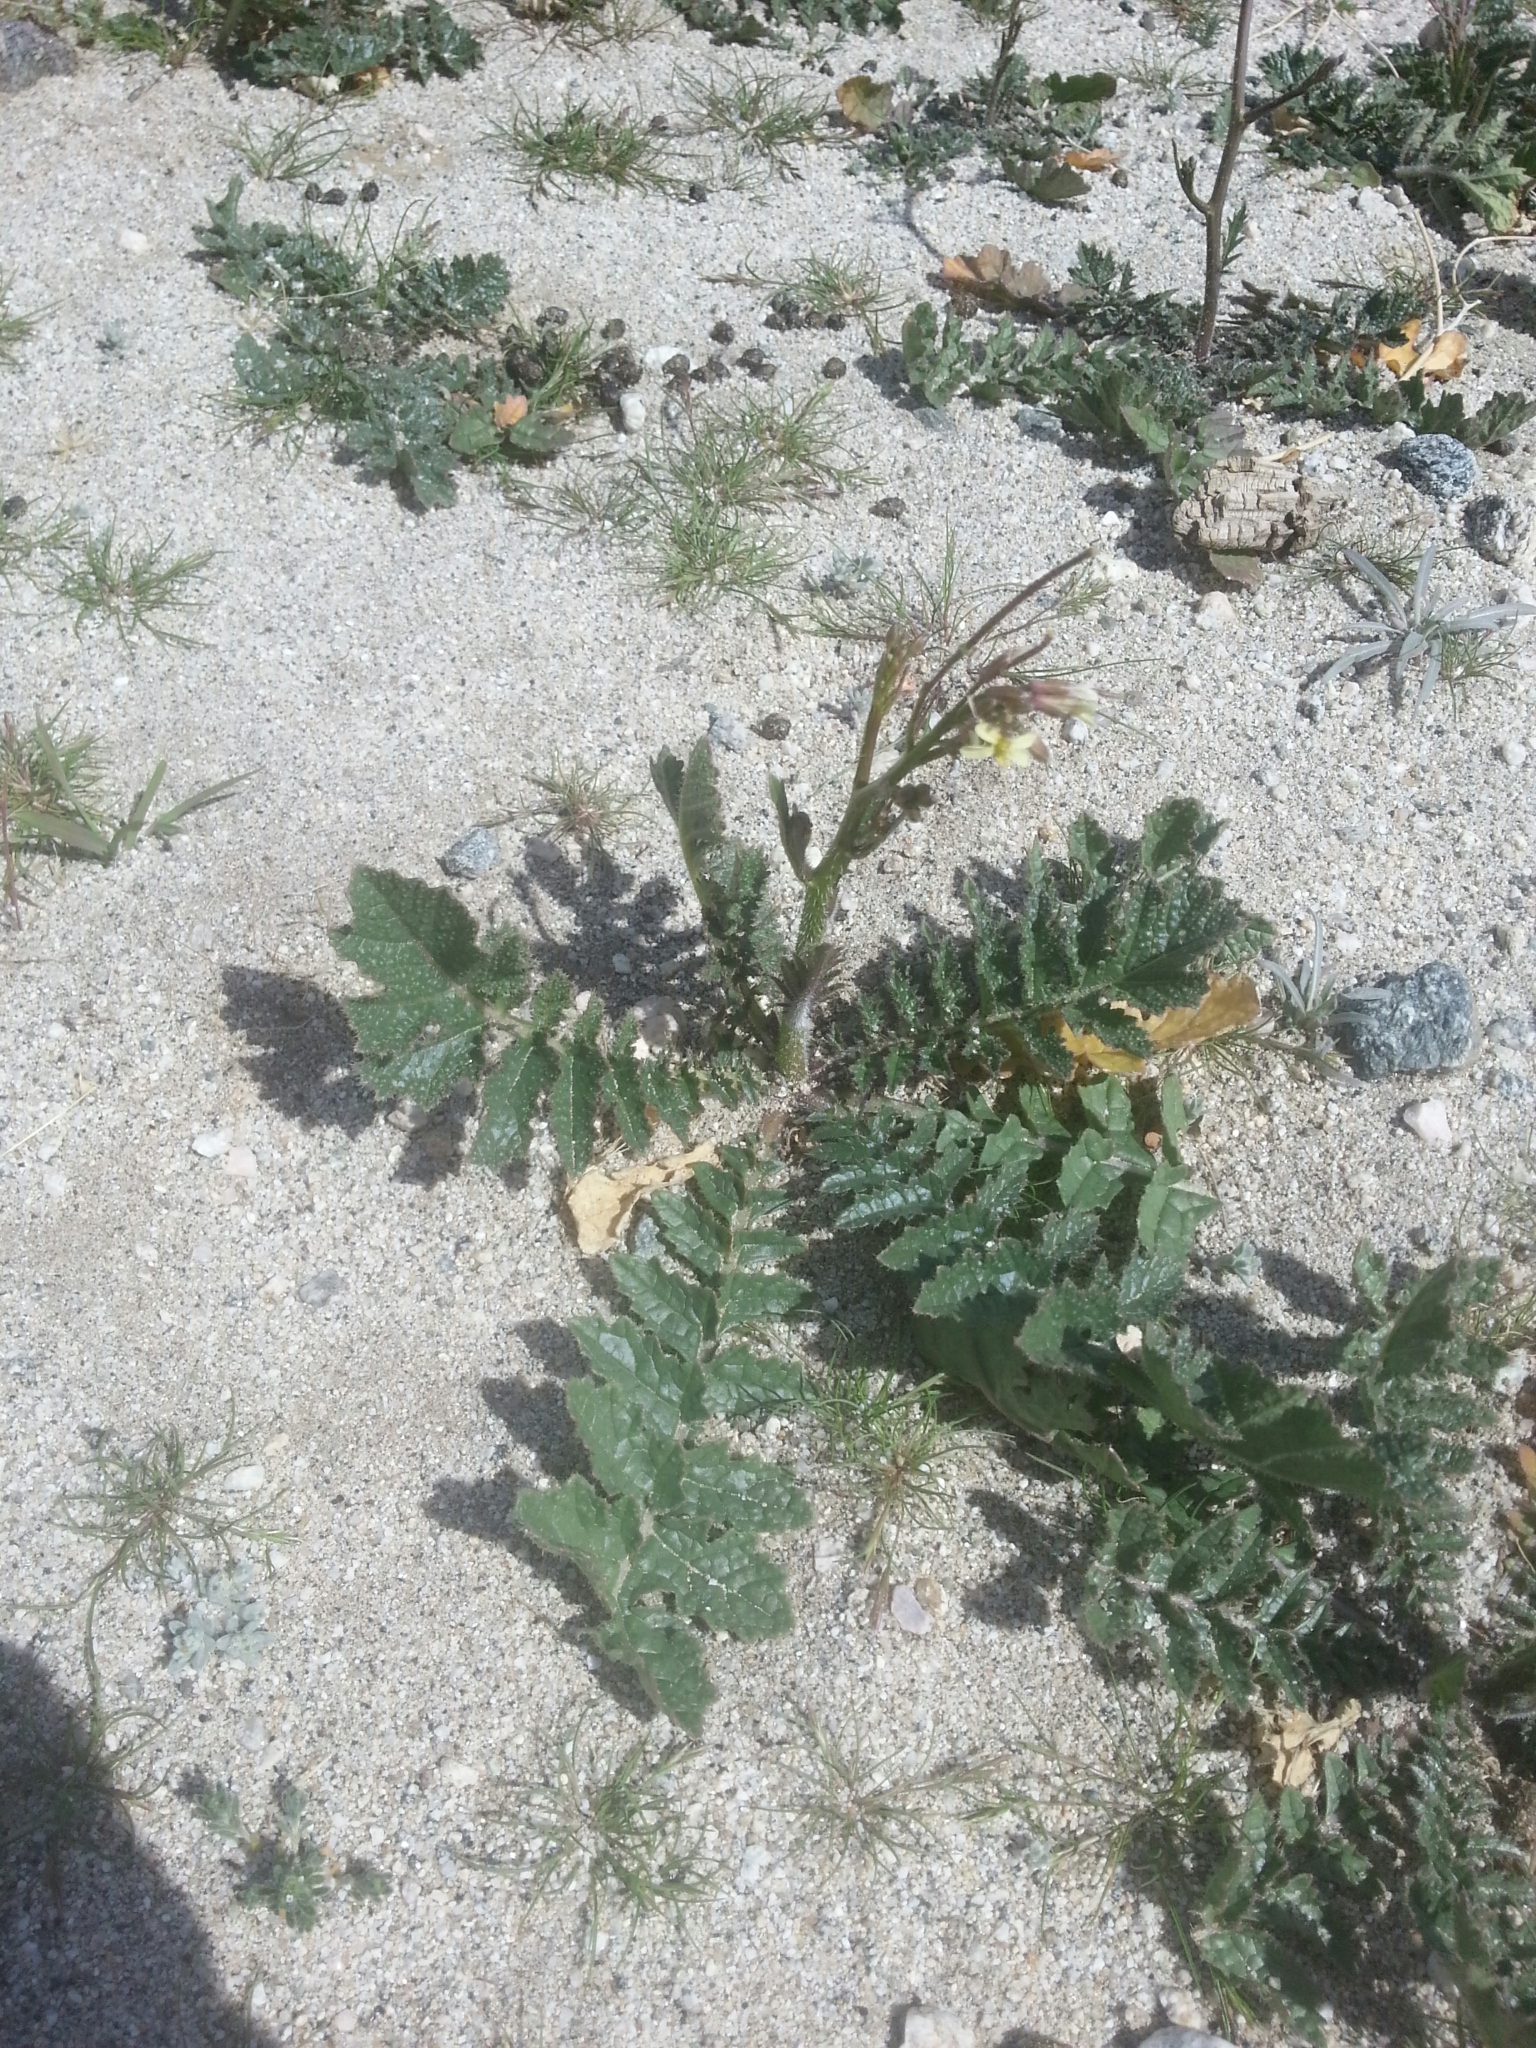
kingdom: Plantae
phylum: Tracheophyta
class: Magnoliopsida
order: Brassicales
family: Brassicaceae
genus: Brassica
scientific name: Brassica tournefortii
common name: Pale cabbage
